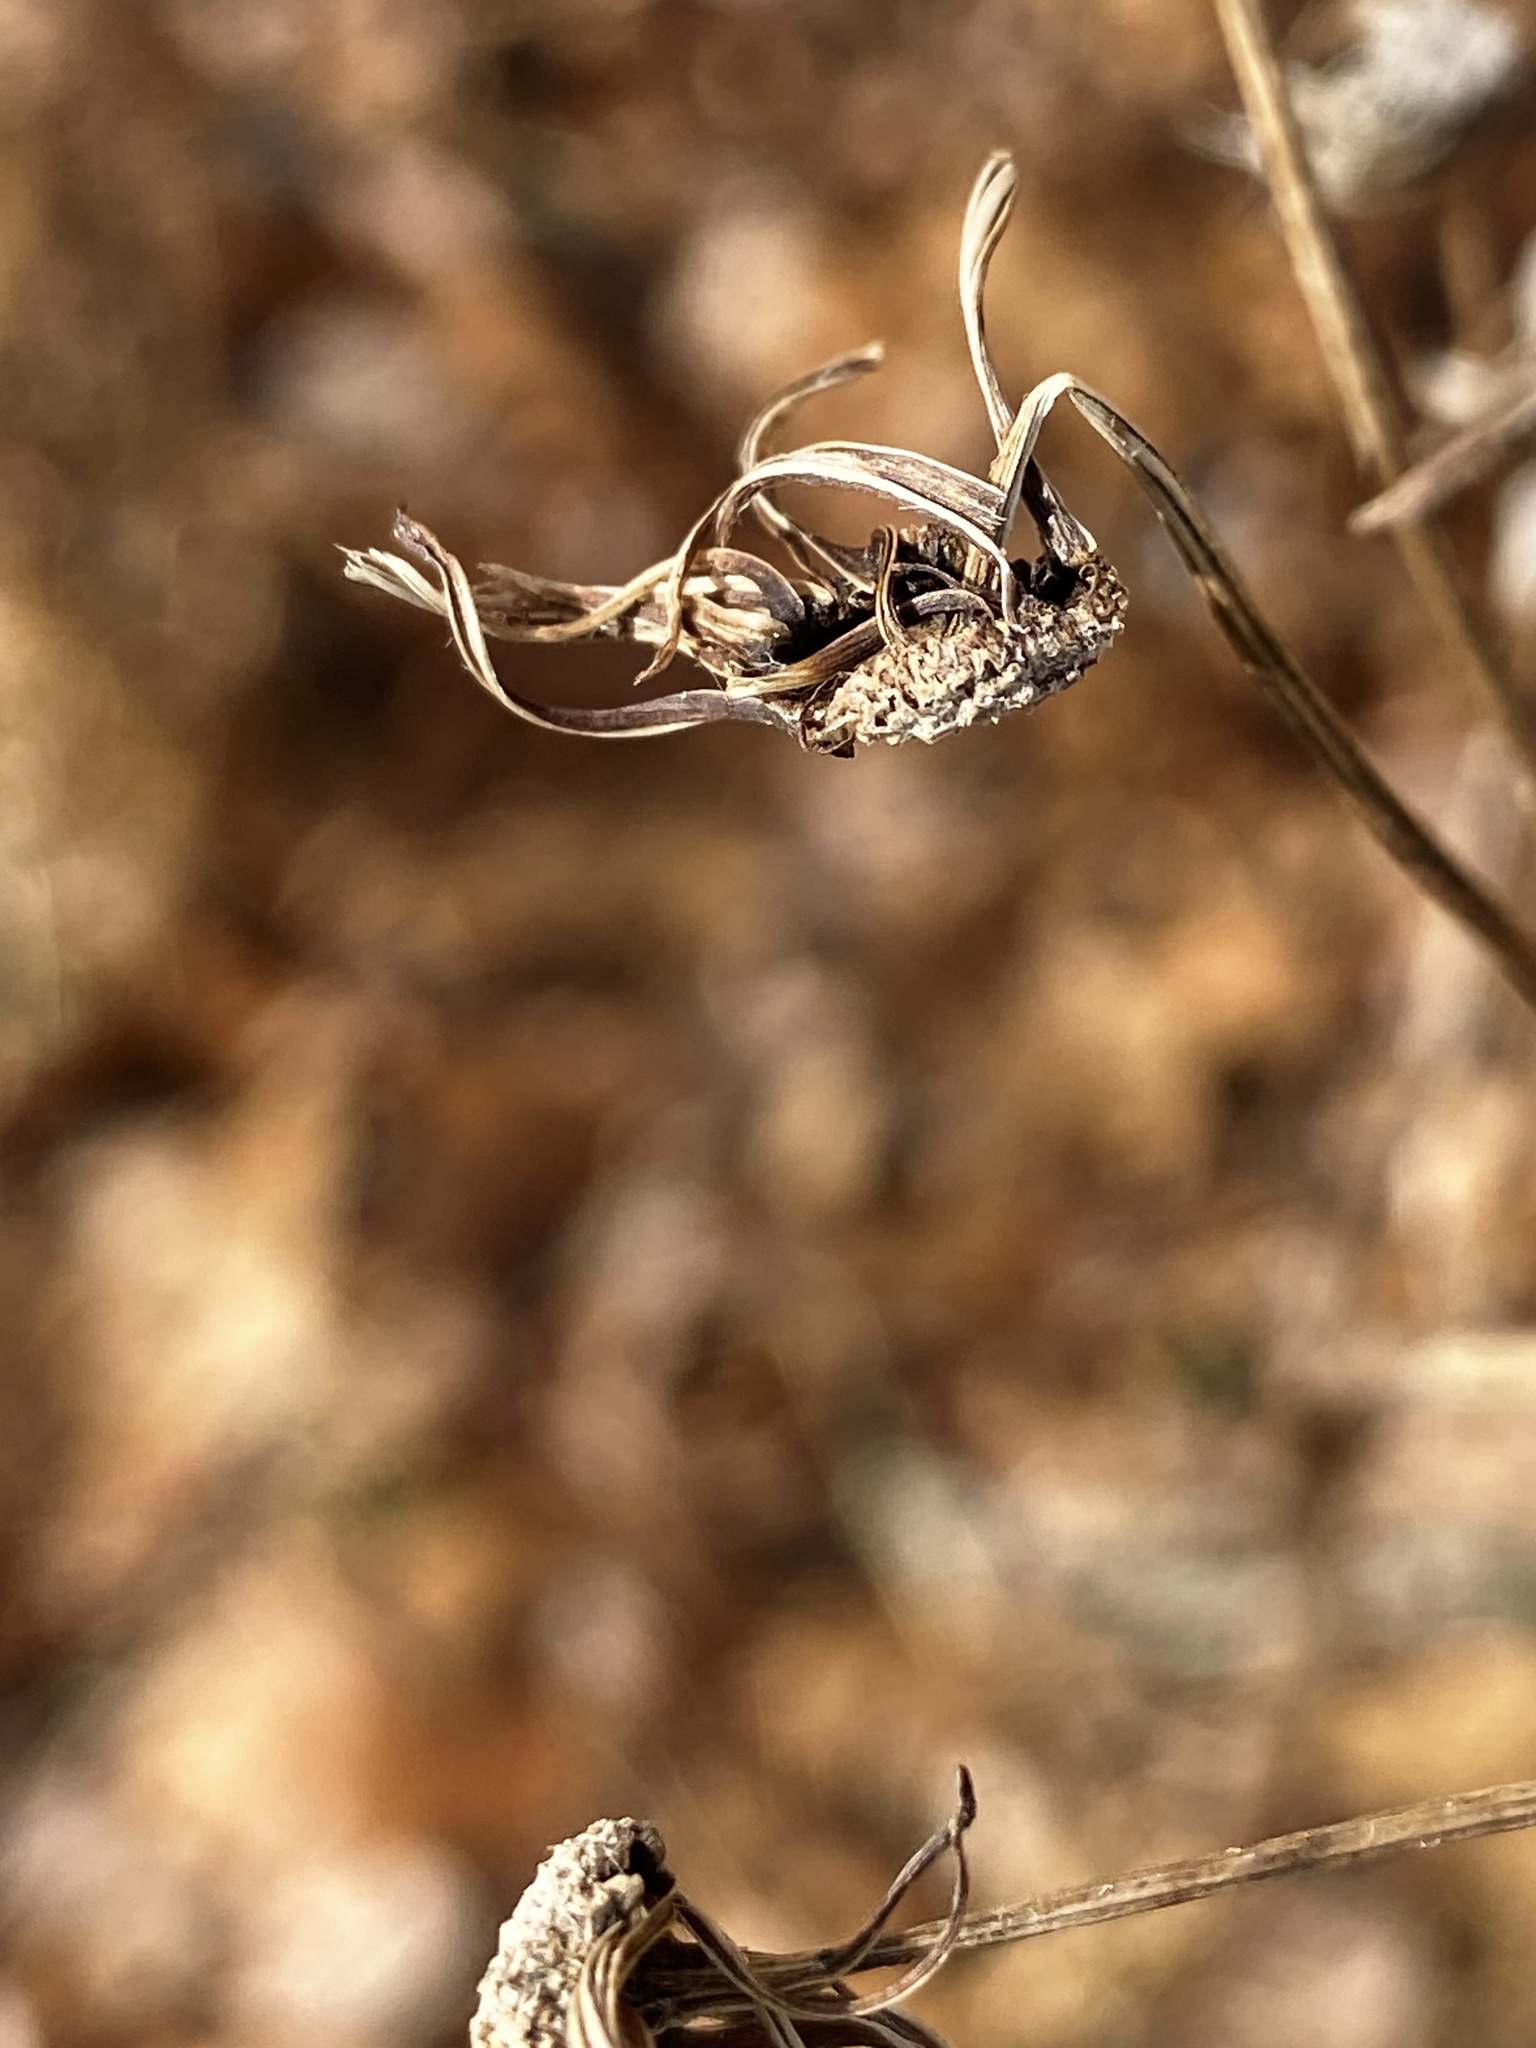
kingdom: Plantae
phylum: Tracheophyta
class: Magnoliopsida
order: Asterales
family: Asteraceae
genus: Erechtites
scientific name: Erechtites hieraciifolius
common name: American burnweed
